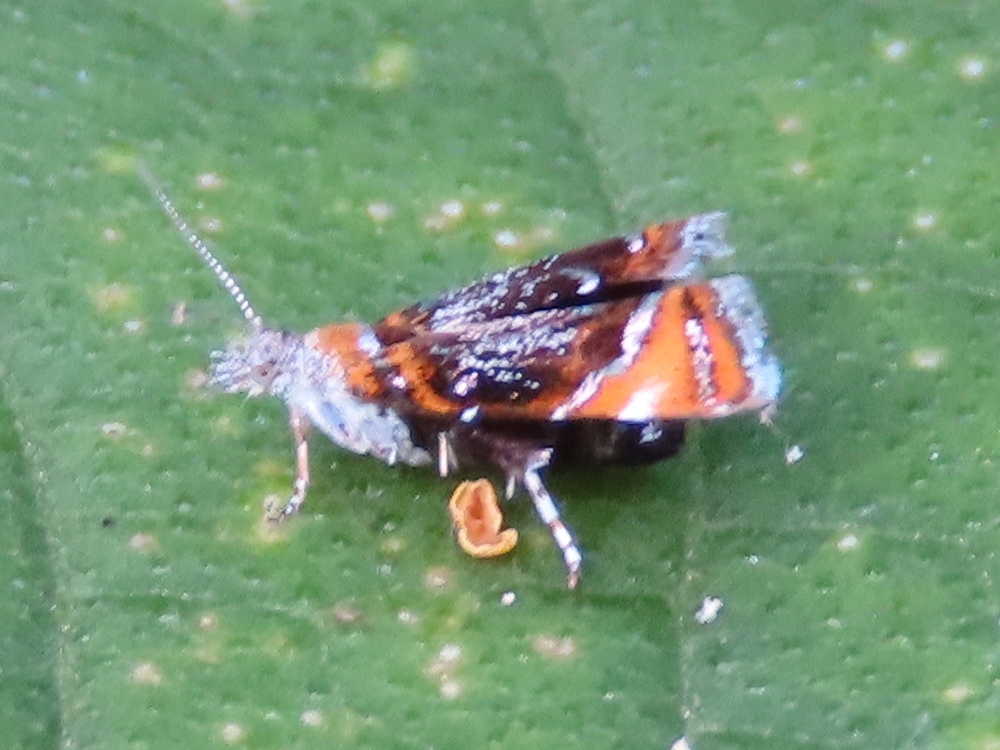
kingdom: Animalia
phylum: Arthropoda
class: Insecta
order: Lepidoptera
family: Choreutidae
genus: Prochoreutis
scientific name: Prochoreutis inflatella
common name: Skullcap skeletonizer moth
